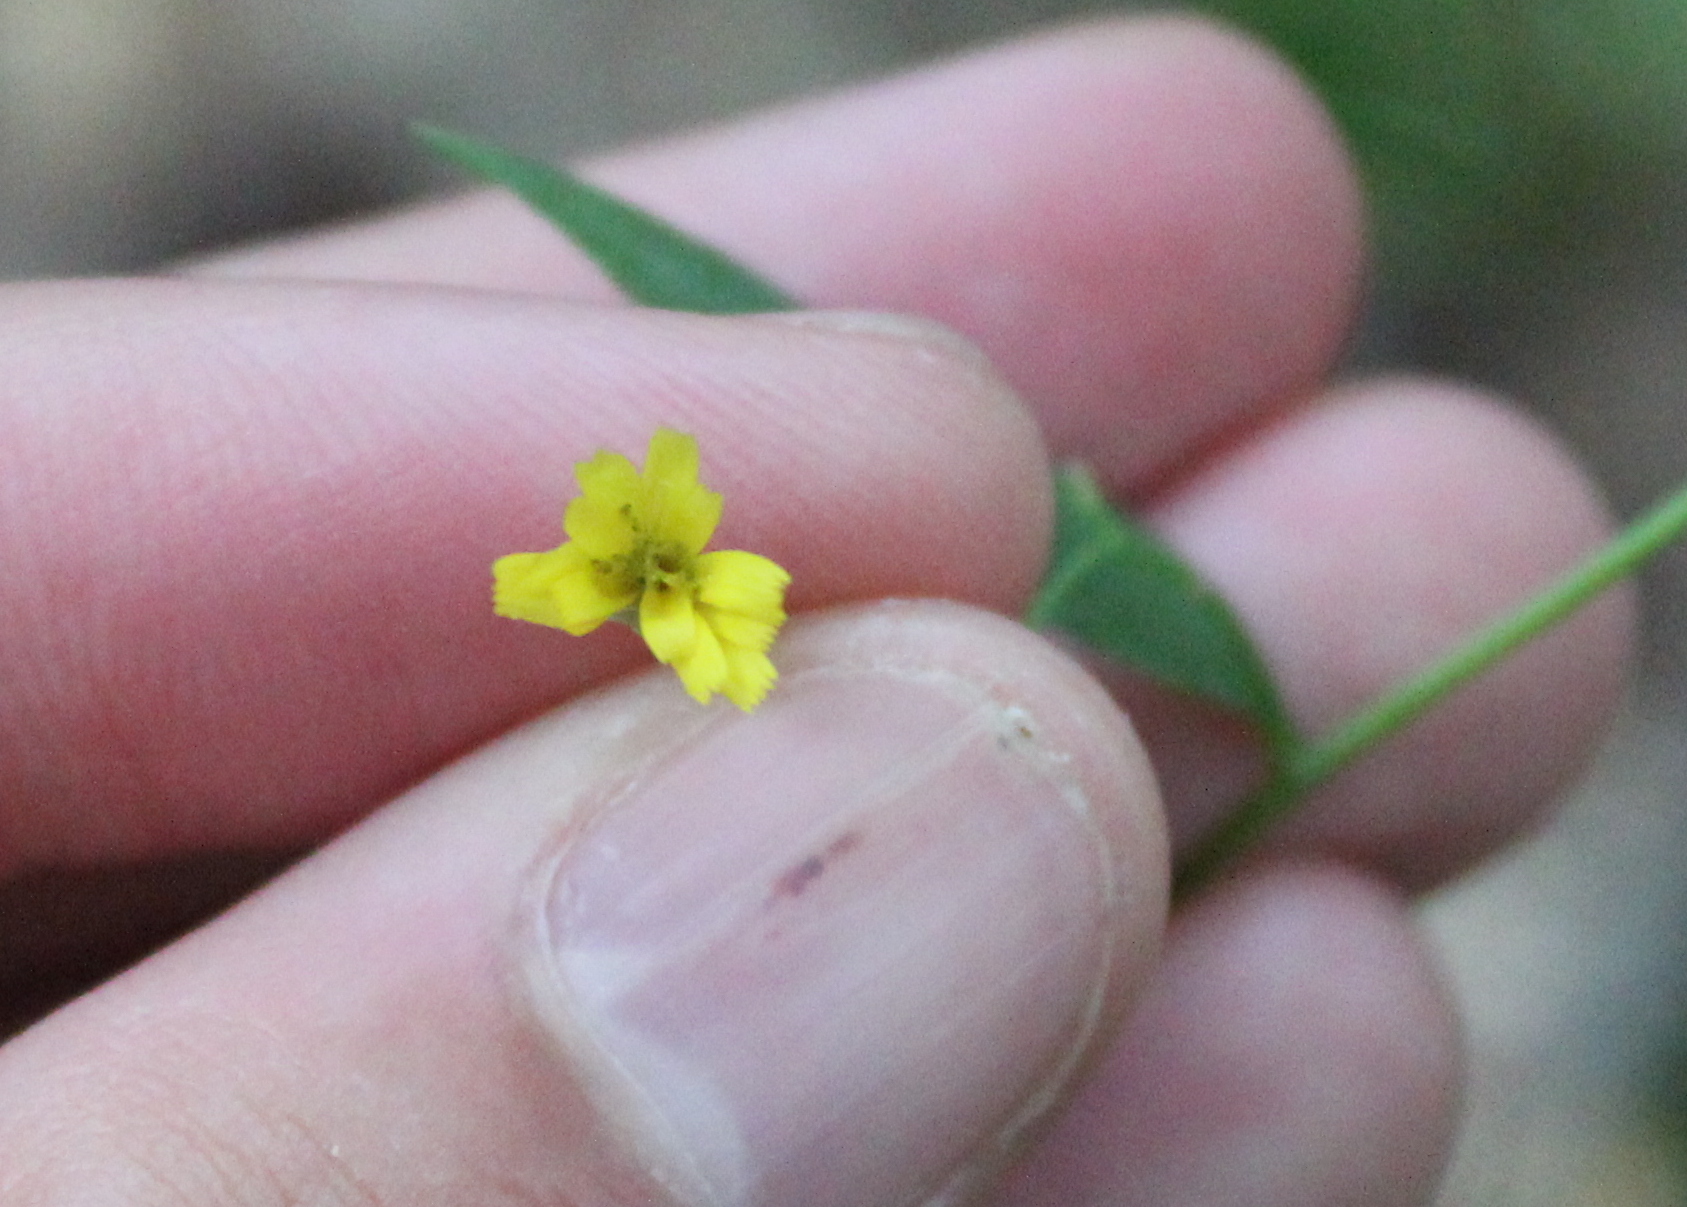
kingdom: Plantae
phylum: Tracheophyta
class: Magnoliopsida
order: Asterales
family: Asteraceae
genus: Hieracium
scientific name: Hieracium paniculatum
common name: Allegheny hawkweed
